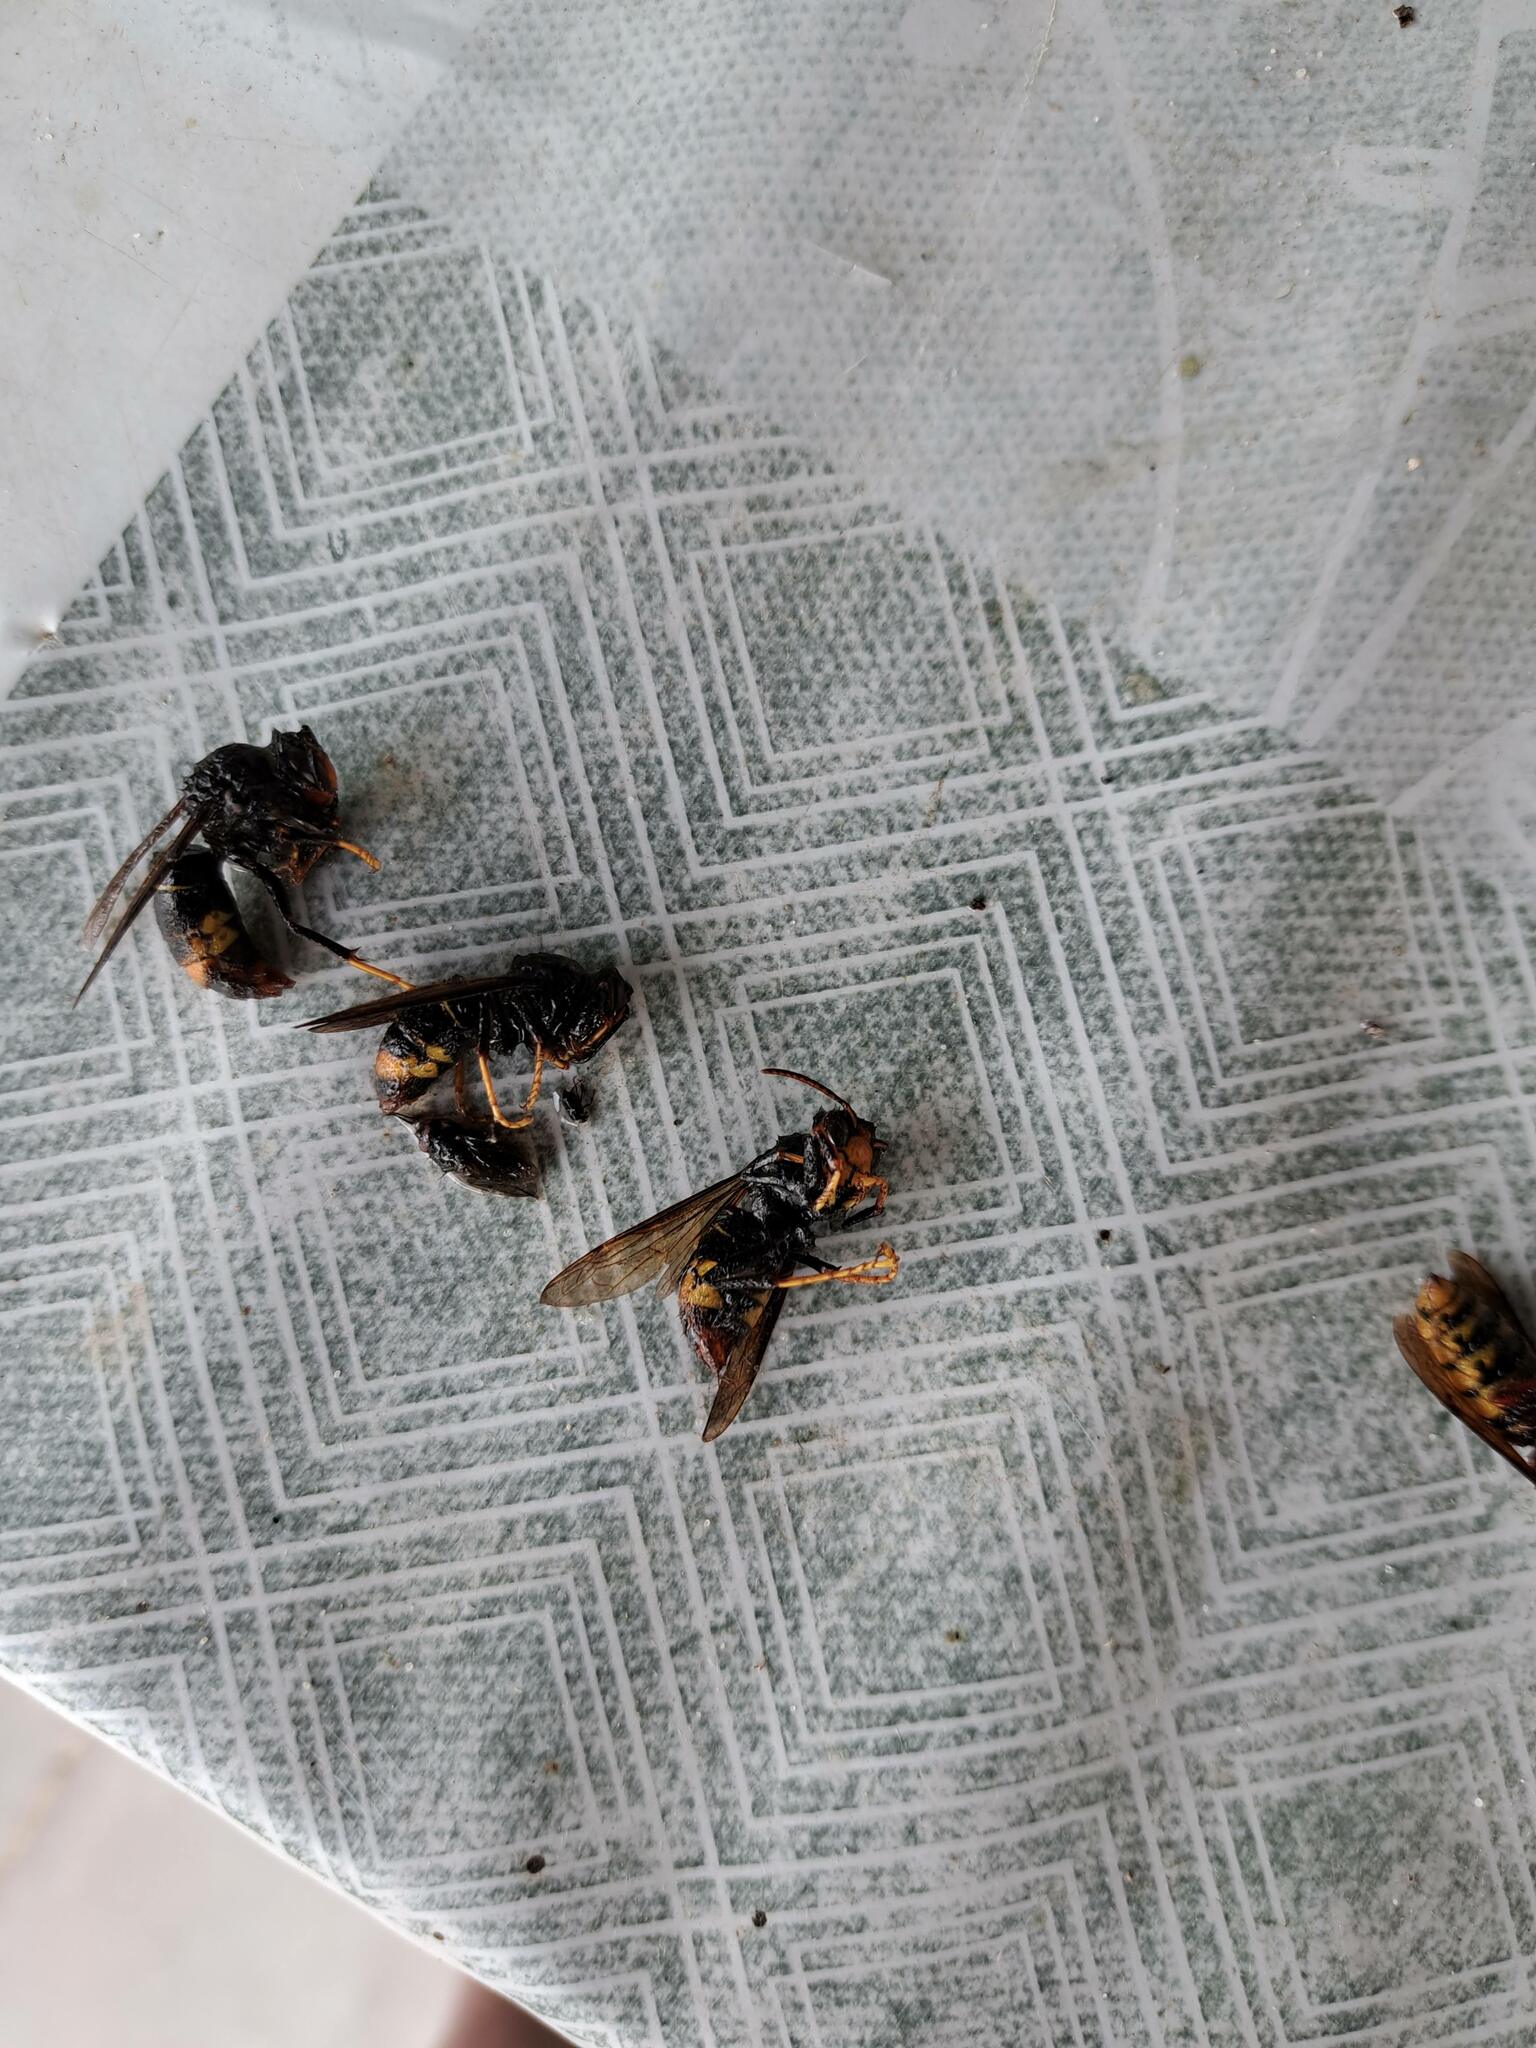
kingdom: Animalia
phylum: Arthropoda
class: Insecta
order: Hymenoptera
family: Vespidae
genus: Vespa
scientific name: Vespa velutina
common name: Asian hornet
